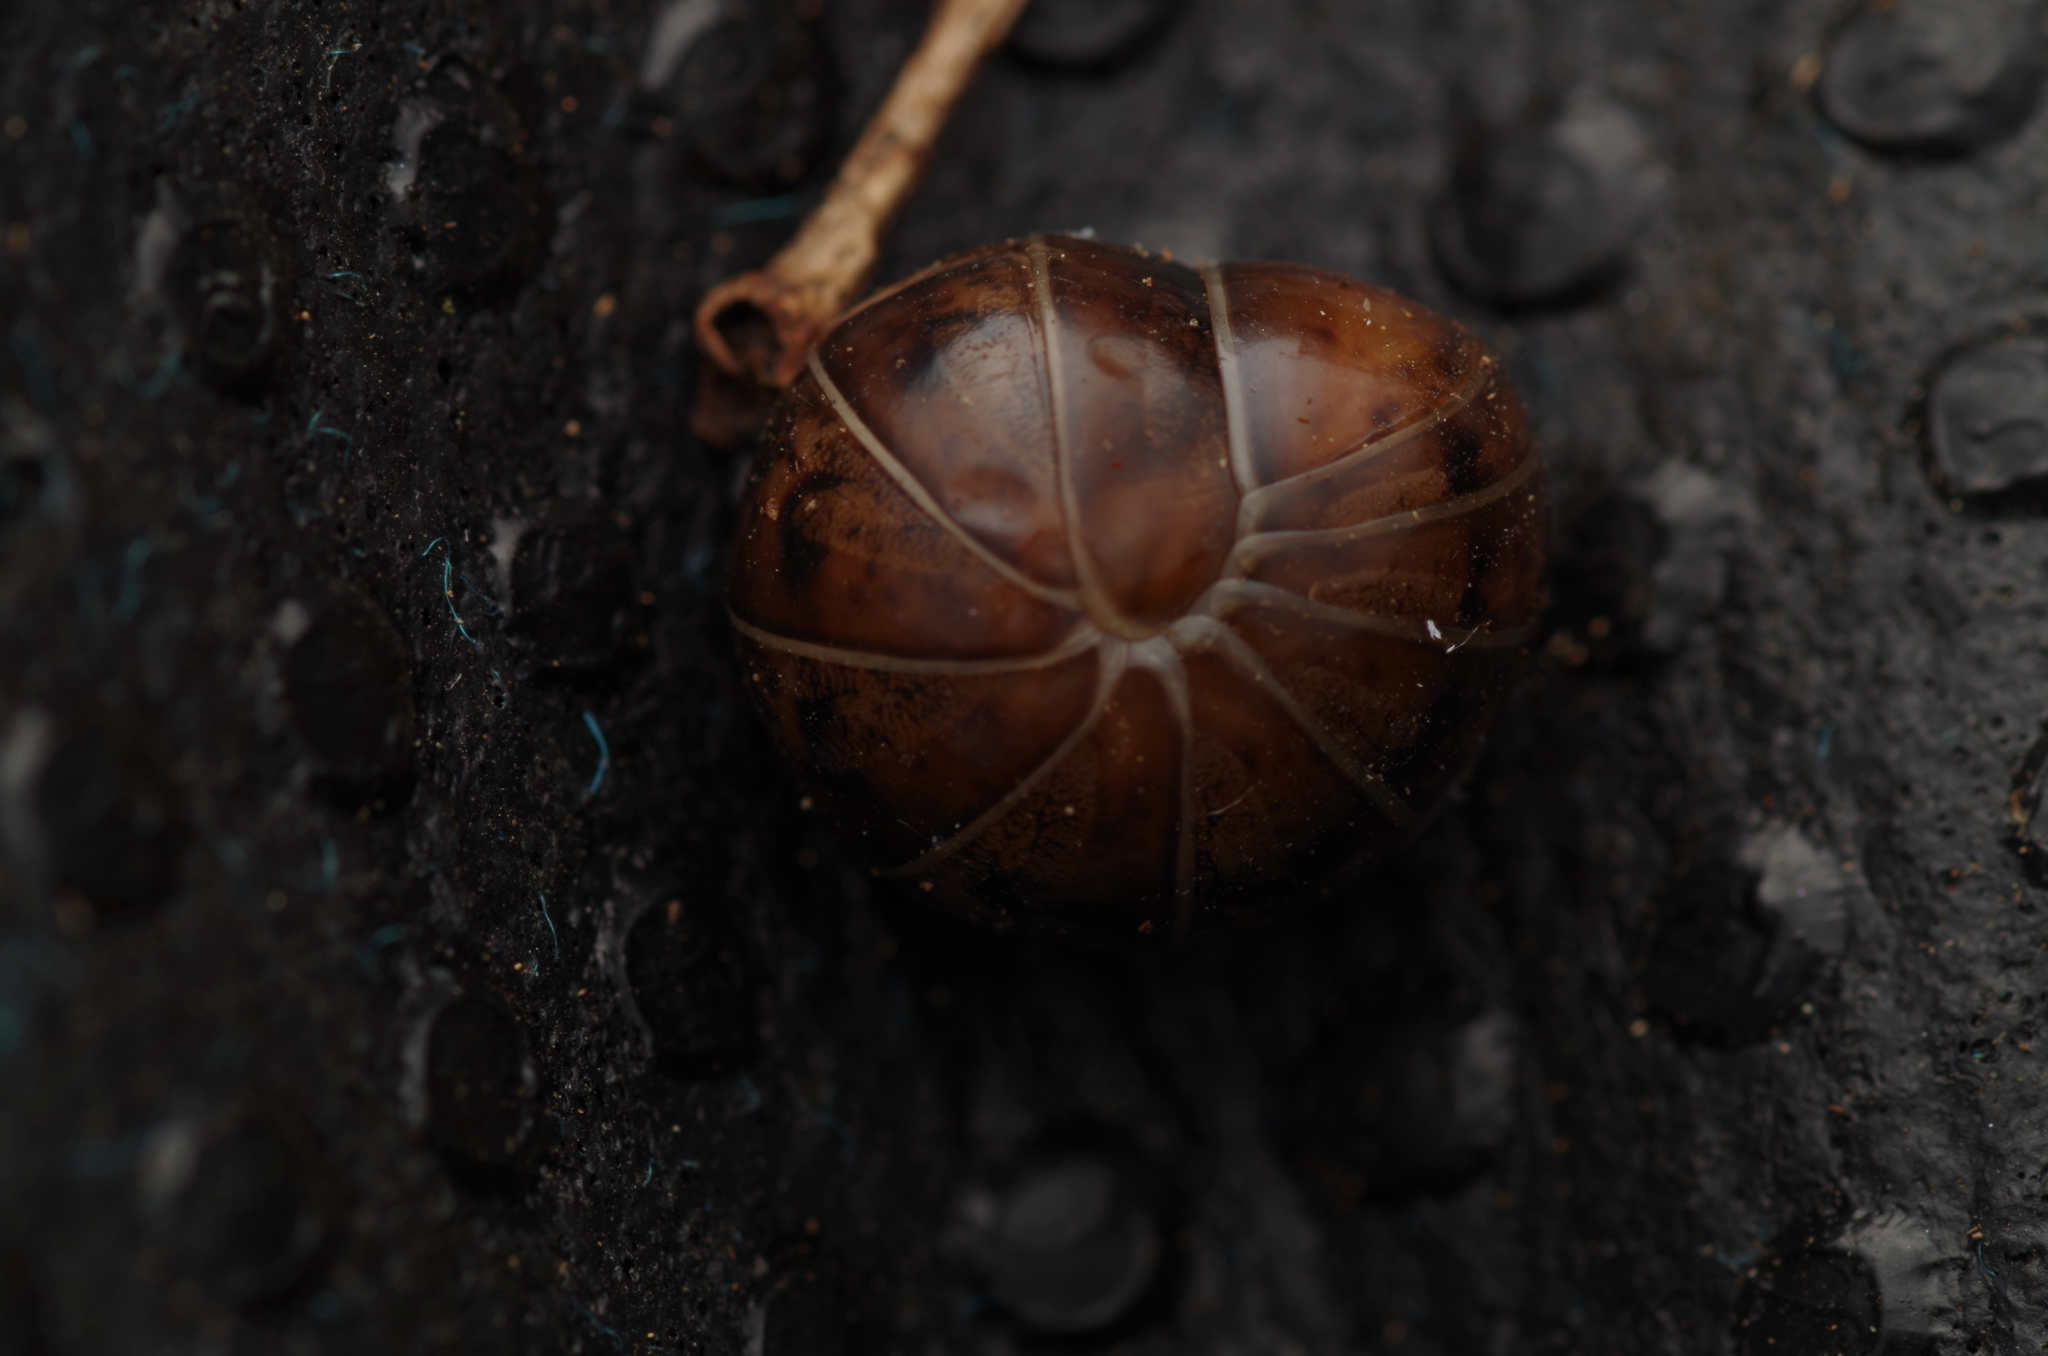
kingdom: Animalia
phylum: Arthropoda
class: Diplopoda
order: Glomerida
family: Protoglomeridae
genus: Protoglomeris
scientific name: Protoglomeris vasconica
